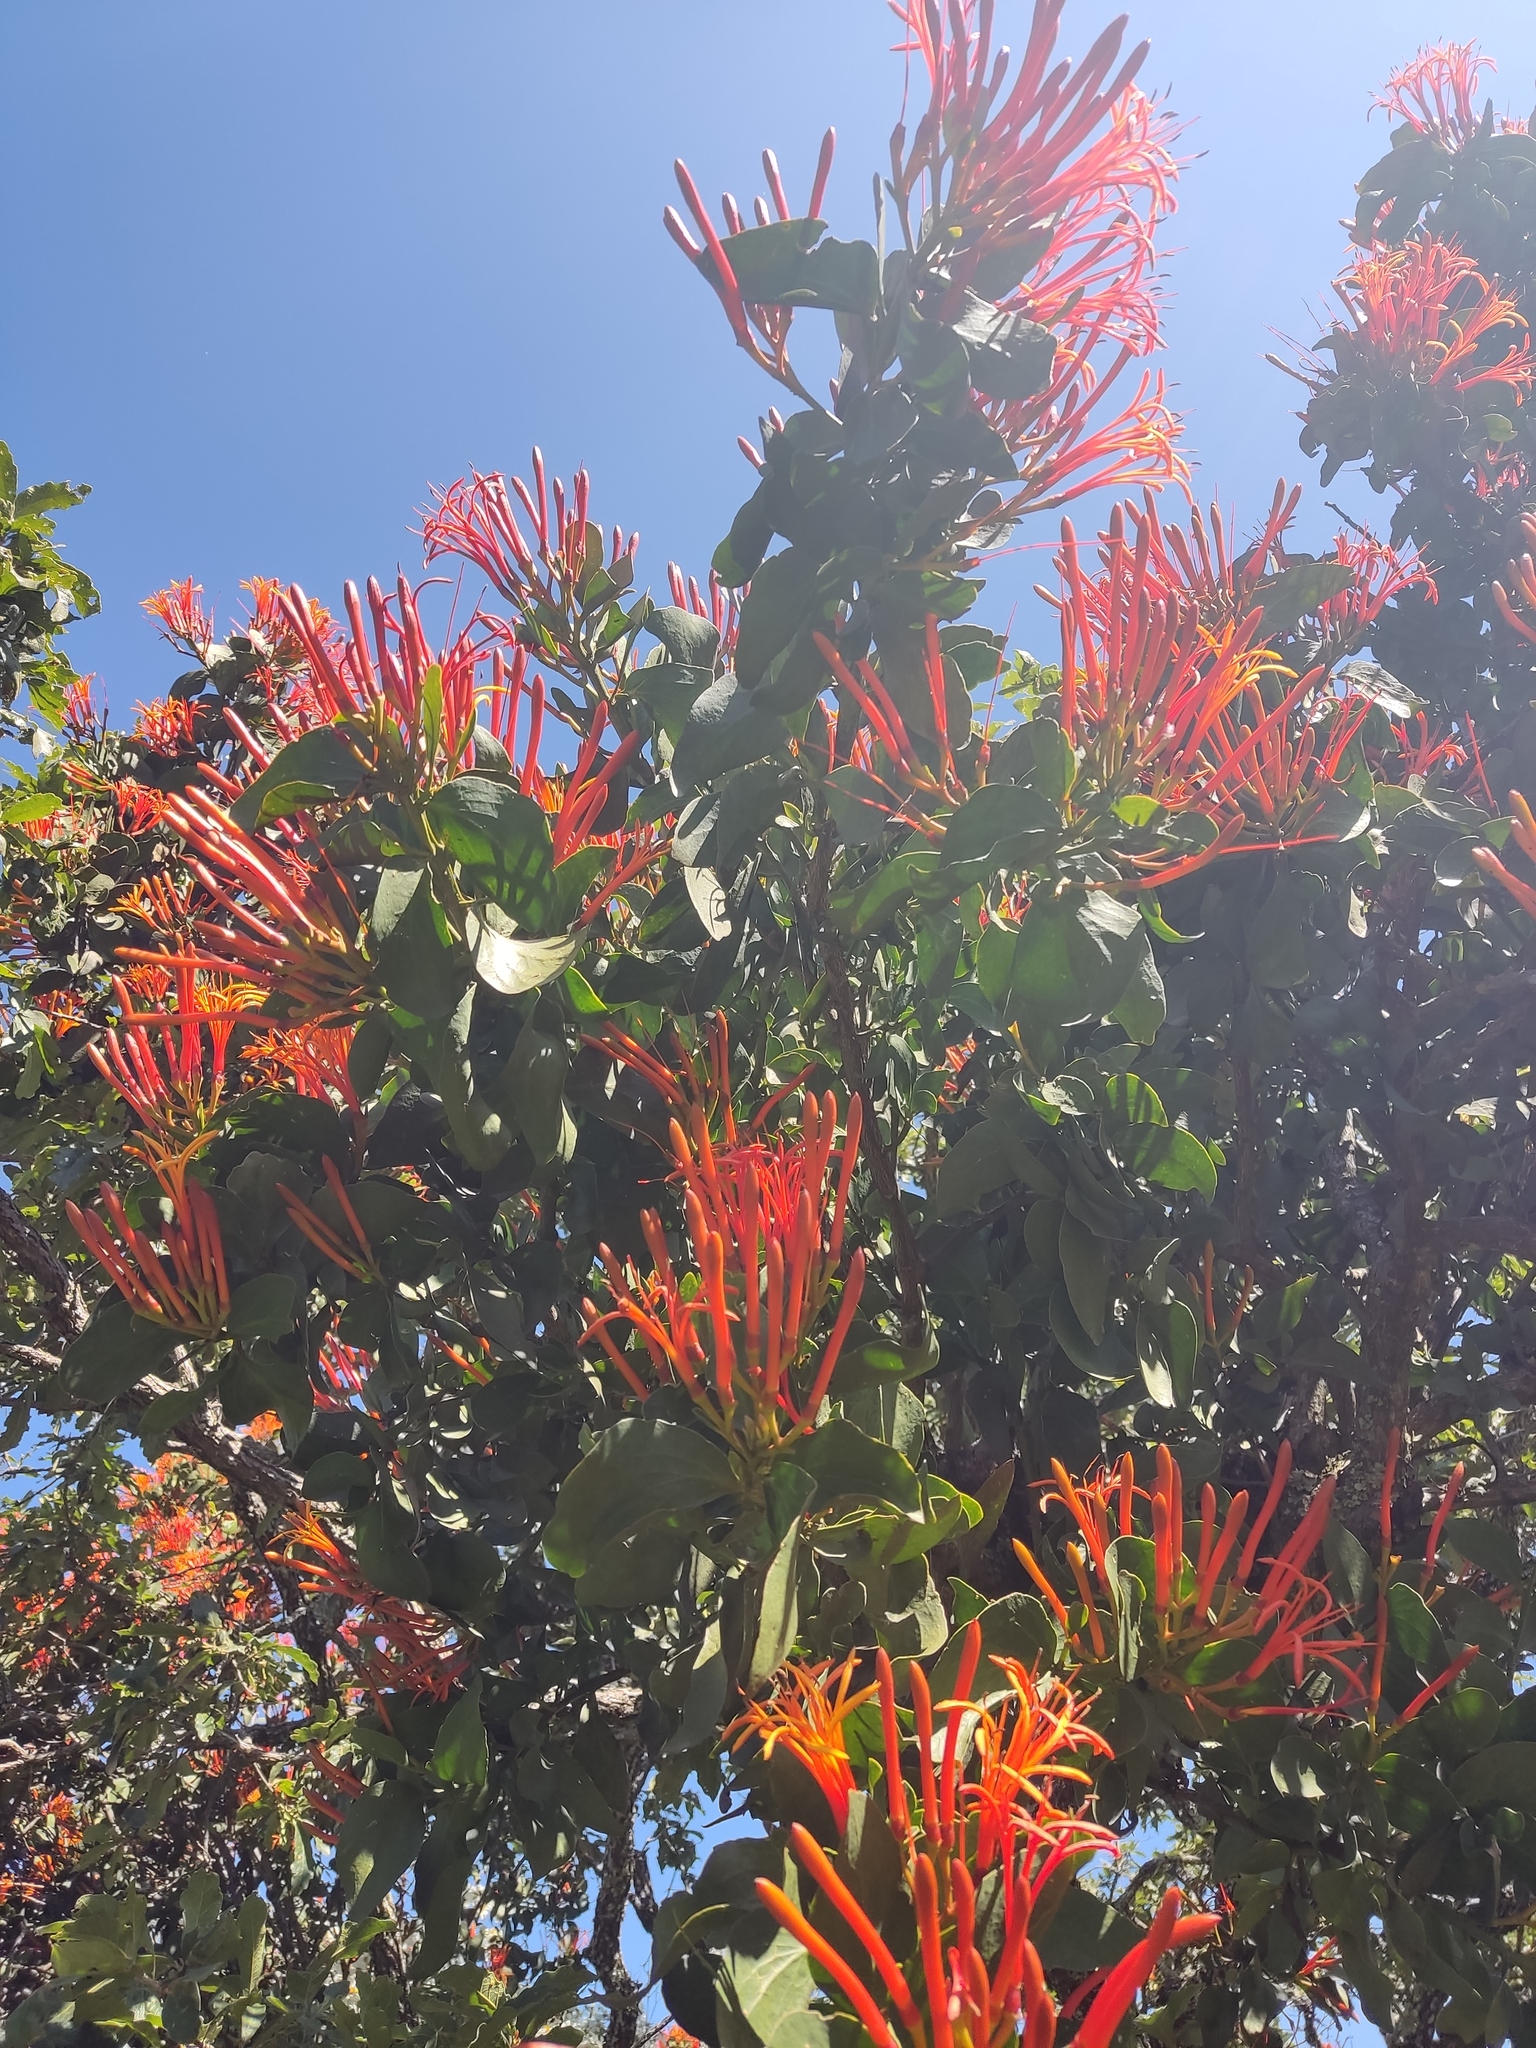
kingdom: Plantae
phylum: Tracheophyta
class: Magnoliopsida
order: Santalales
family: Loranthaceae
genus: Psittacanthus
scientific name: Psittacanthus calyculatus
